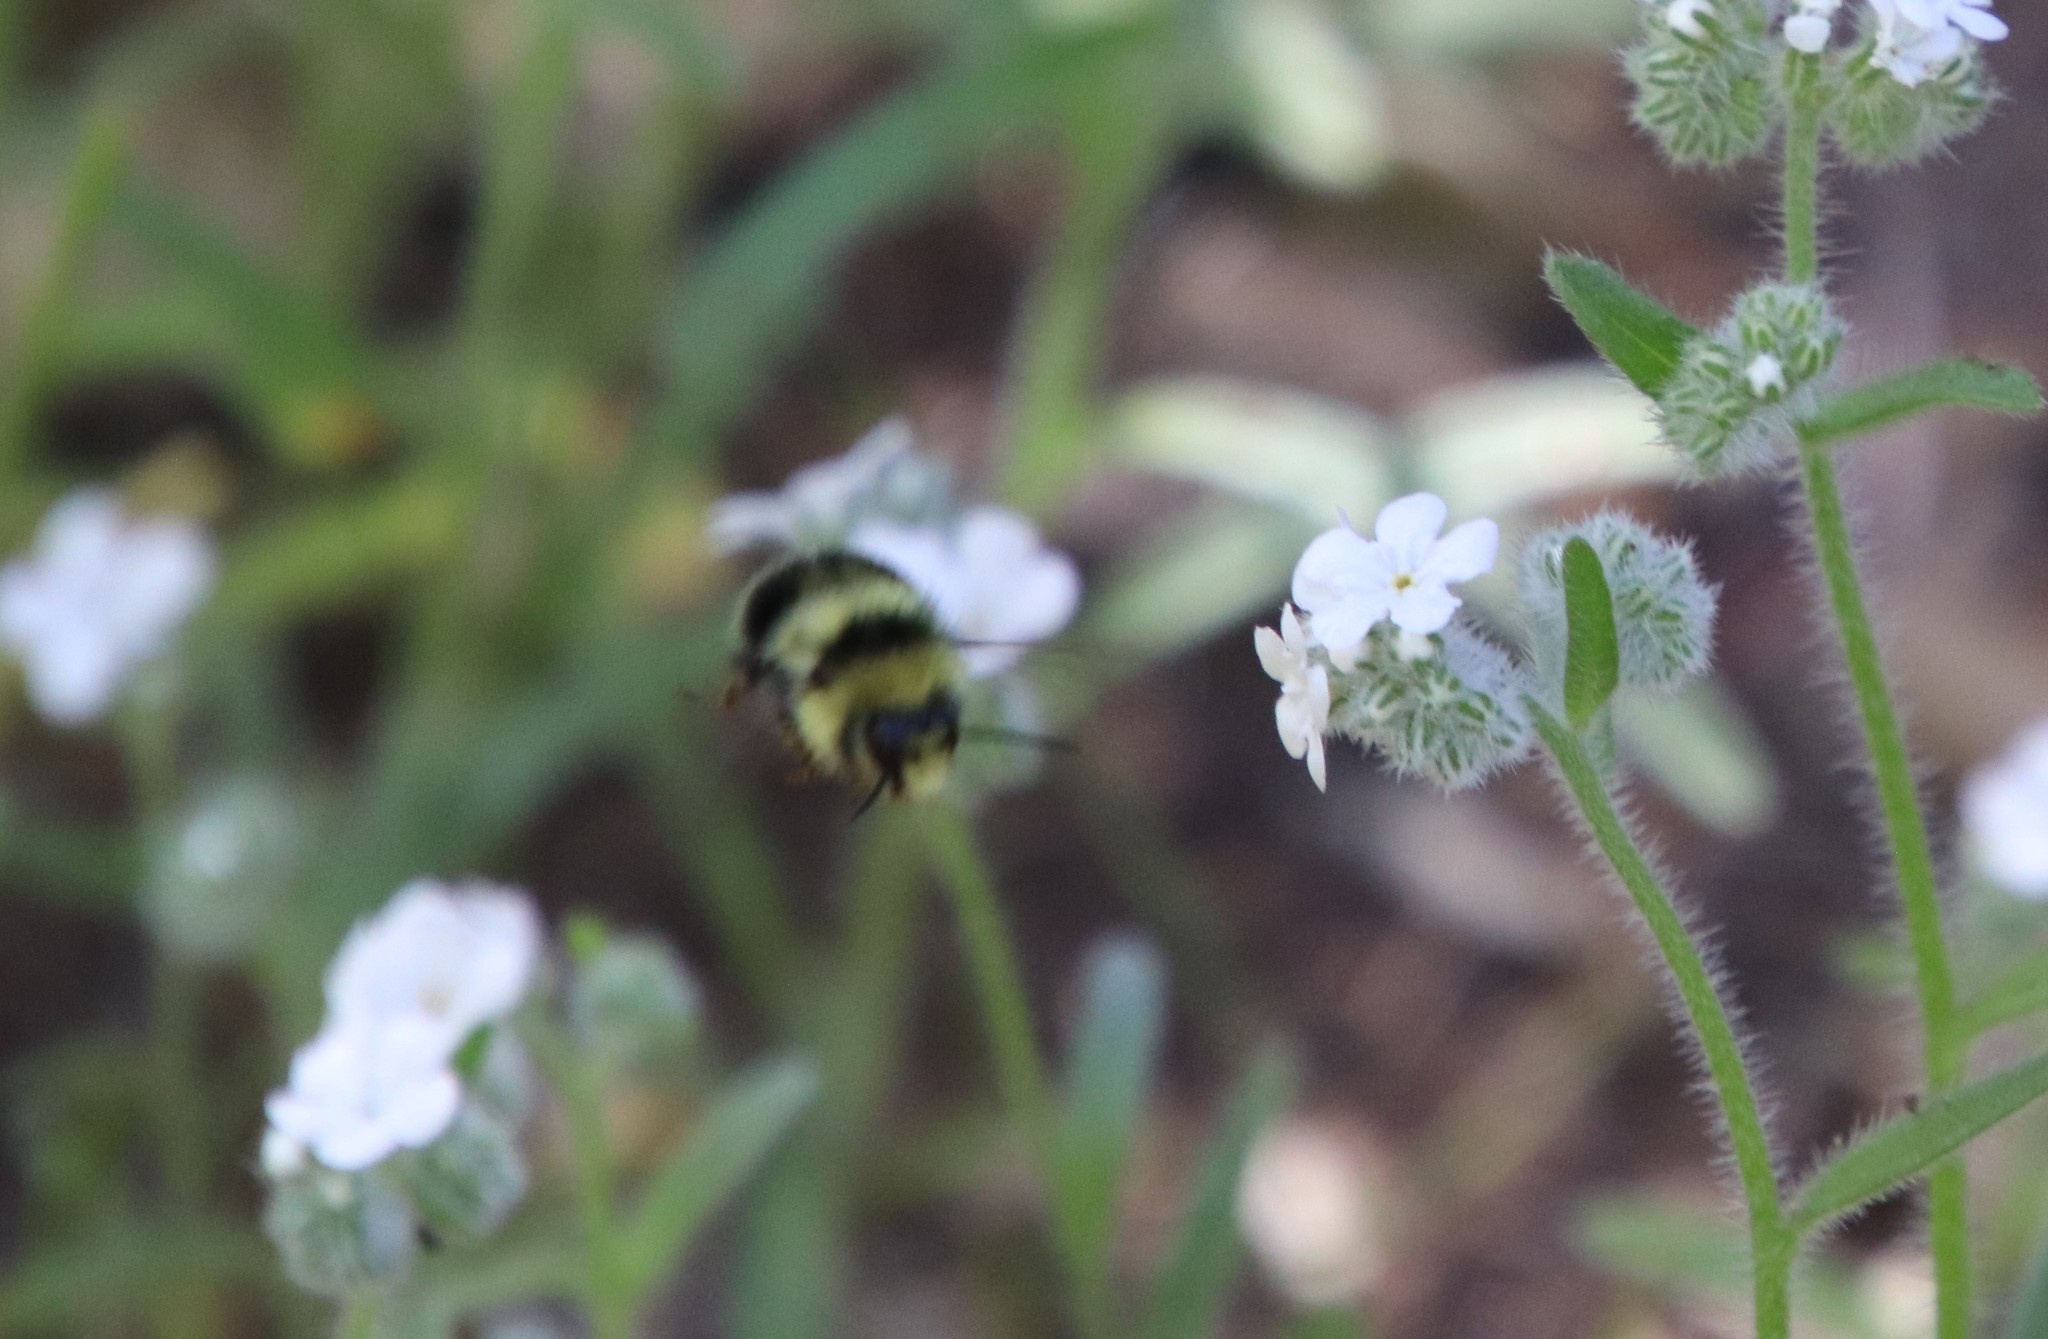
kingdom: Animalia
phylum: Arthropoda
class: Insecta
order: Hymenoptera
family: Apidae
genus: Bombus
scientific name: Bombus melanopygus
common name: Black tail bumble bee
